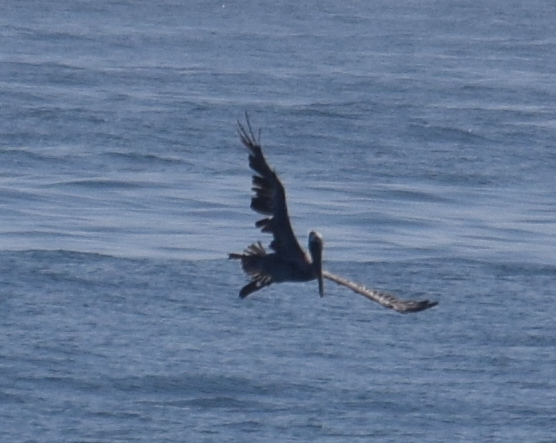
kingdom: Animalia
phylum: Chordata
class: Aves
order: Pelecaniformes
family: Pelecanidae
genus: Pelecanus
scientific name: Pelecanus occidentalis
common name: Brown pelican
